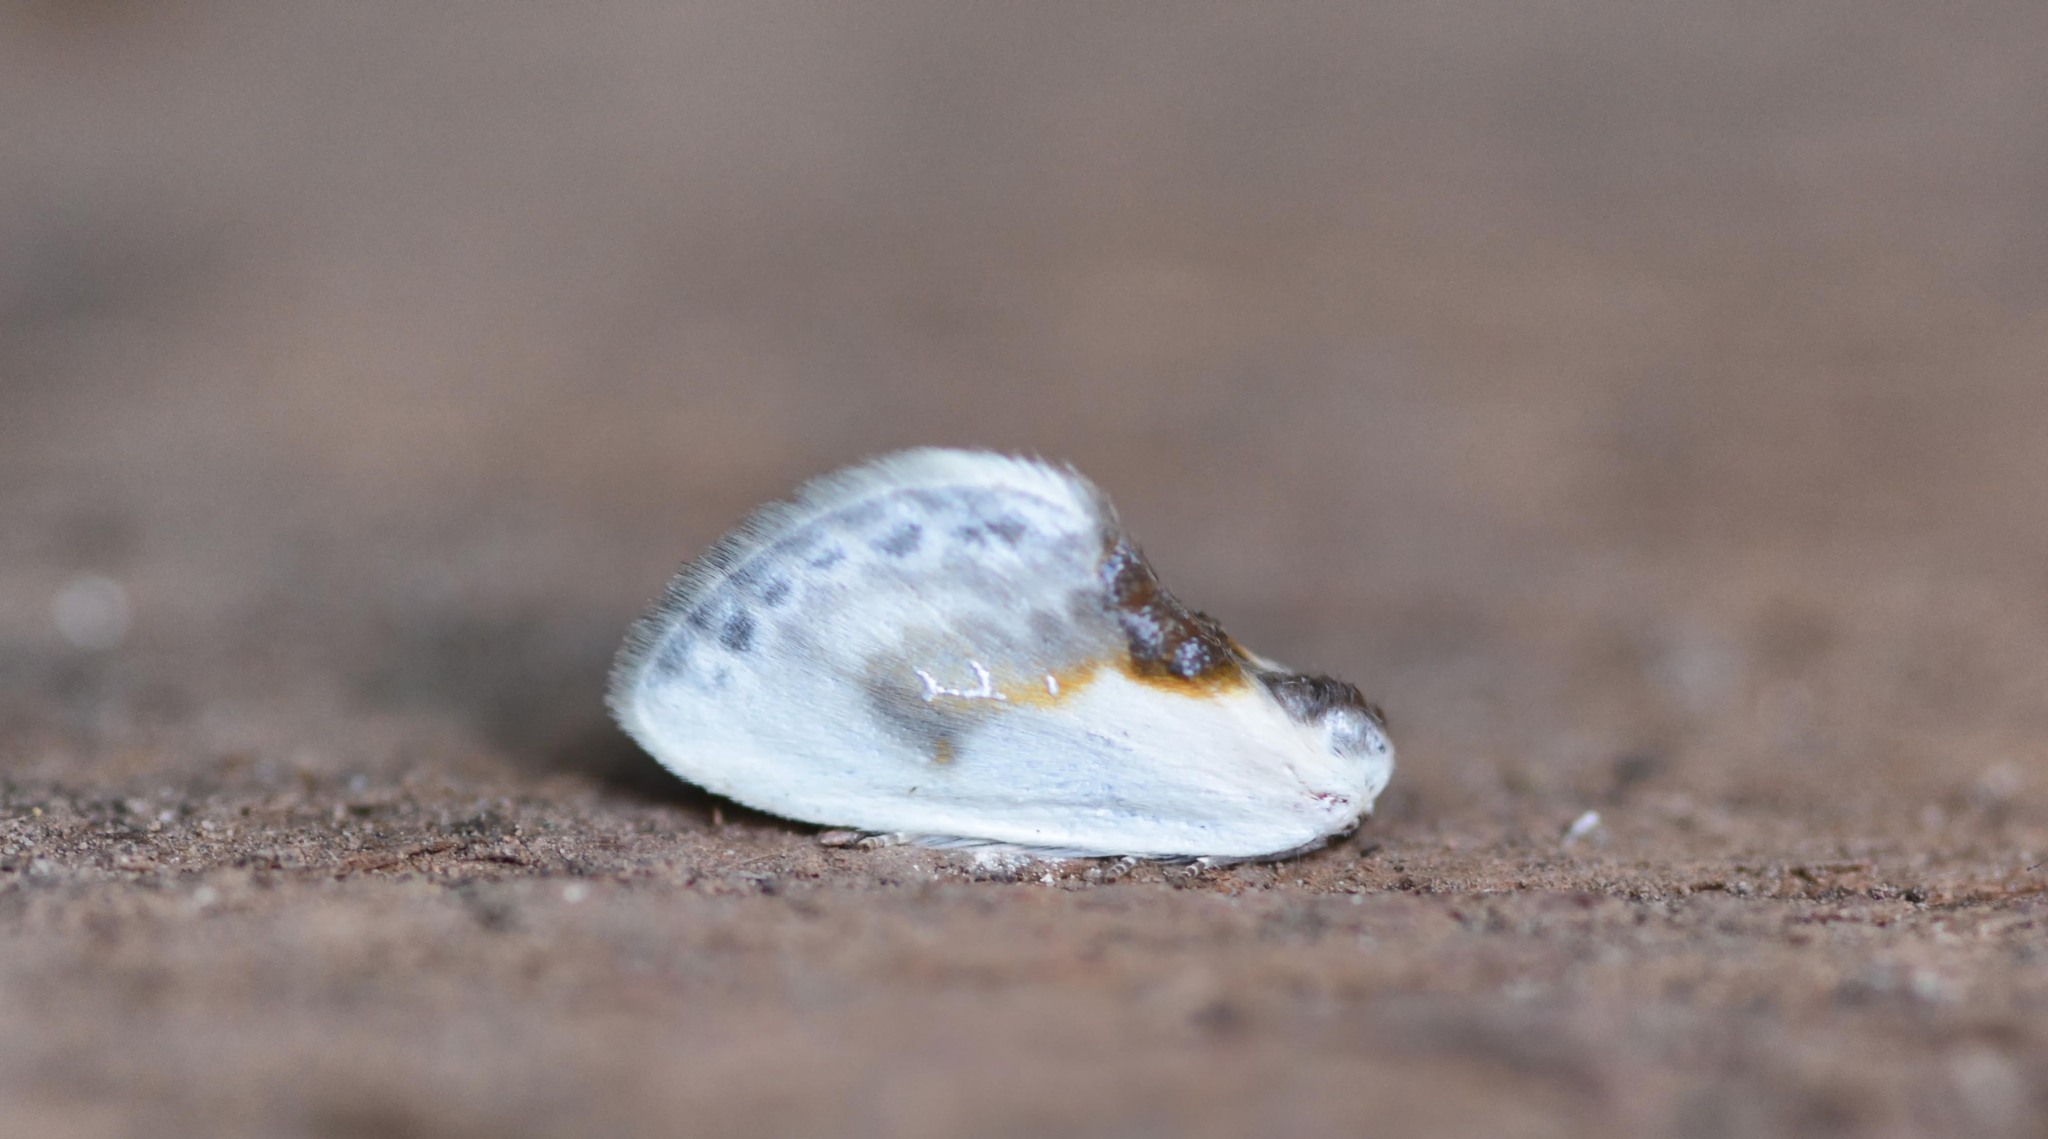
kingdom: Animalia
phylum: Arthropoda
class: Insecta
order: Lepidoptera
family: Drepanidae
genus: Cilix
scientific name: Cilix glaucata
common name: Chinese character
